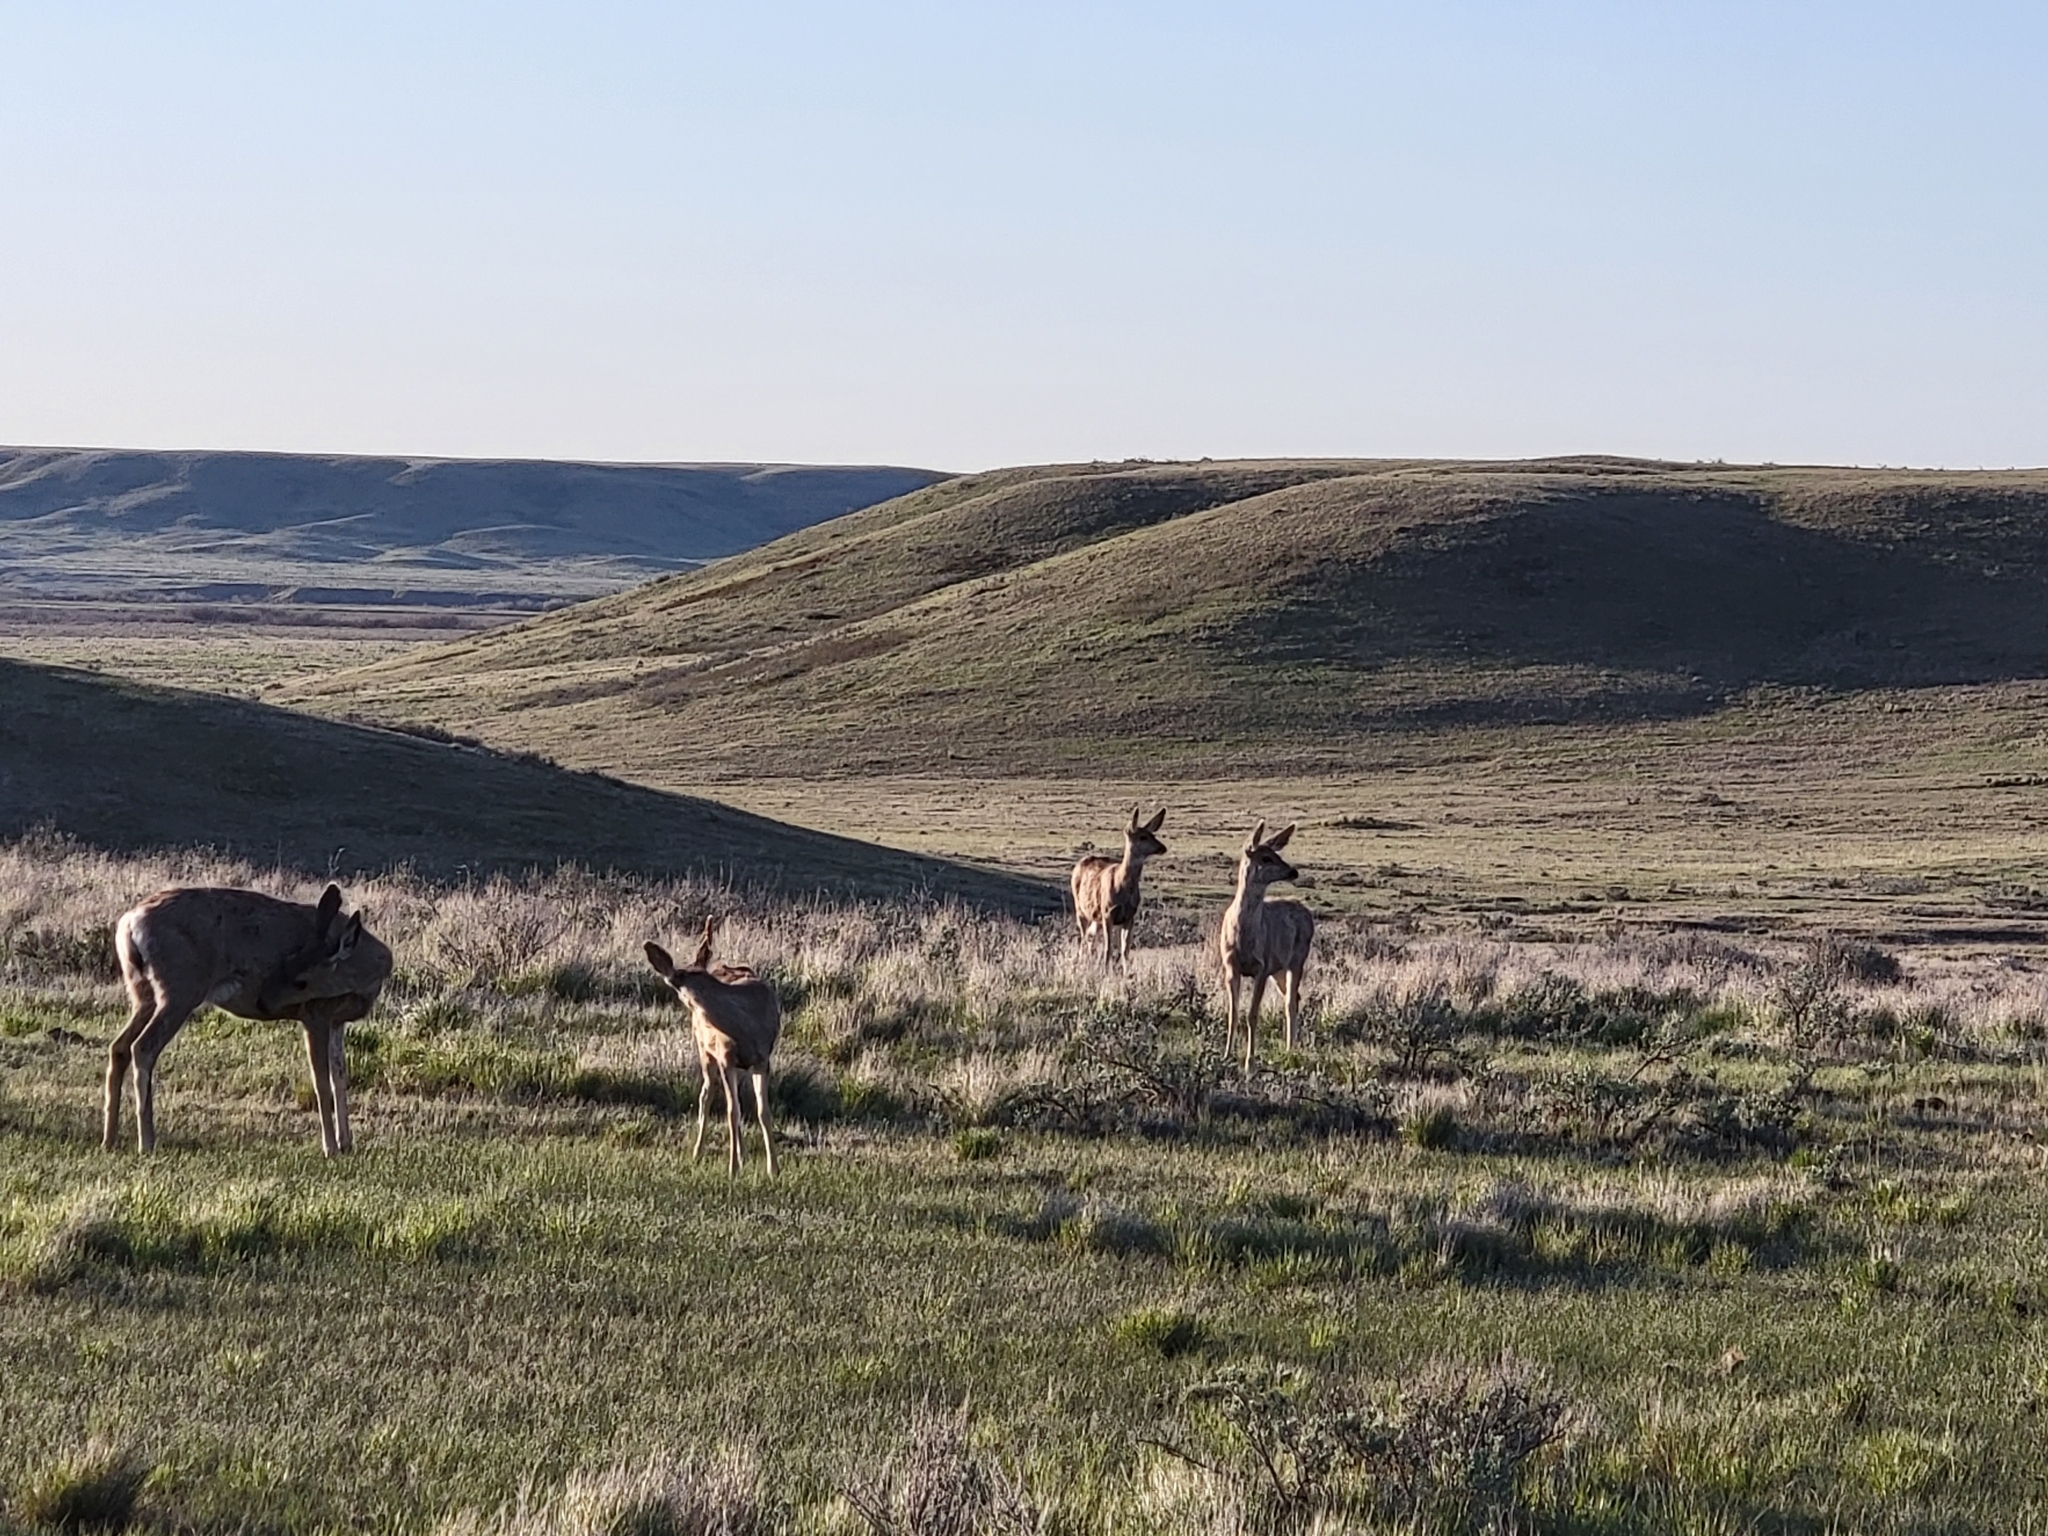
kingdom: Animalia
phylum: Chordata
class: Mammalia
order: Artiodactyla
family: Cervidae
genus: Odocoileus
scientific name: Odocoileus hemionus
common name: Mule deer
